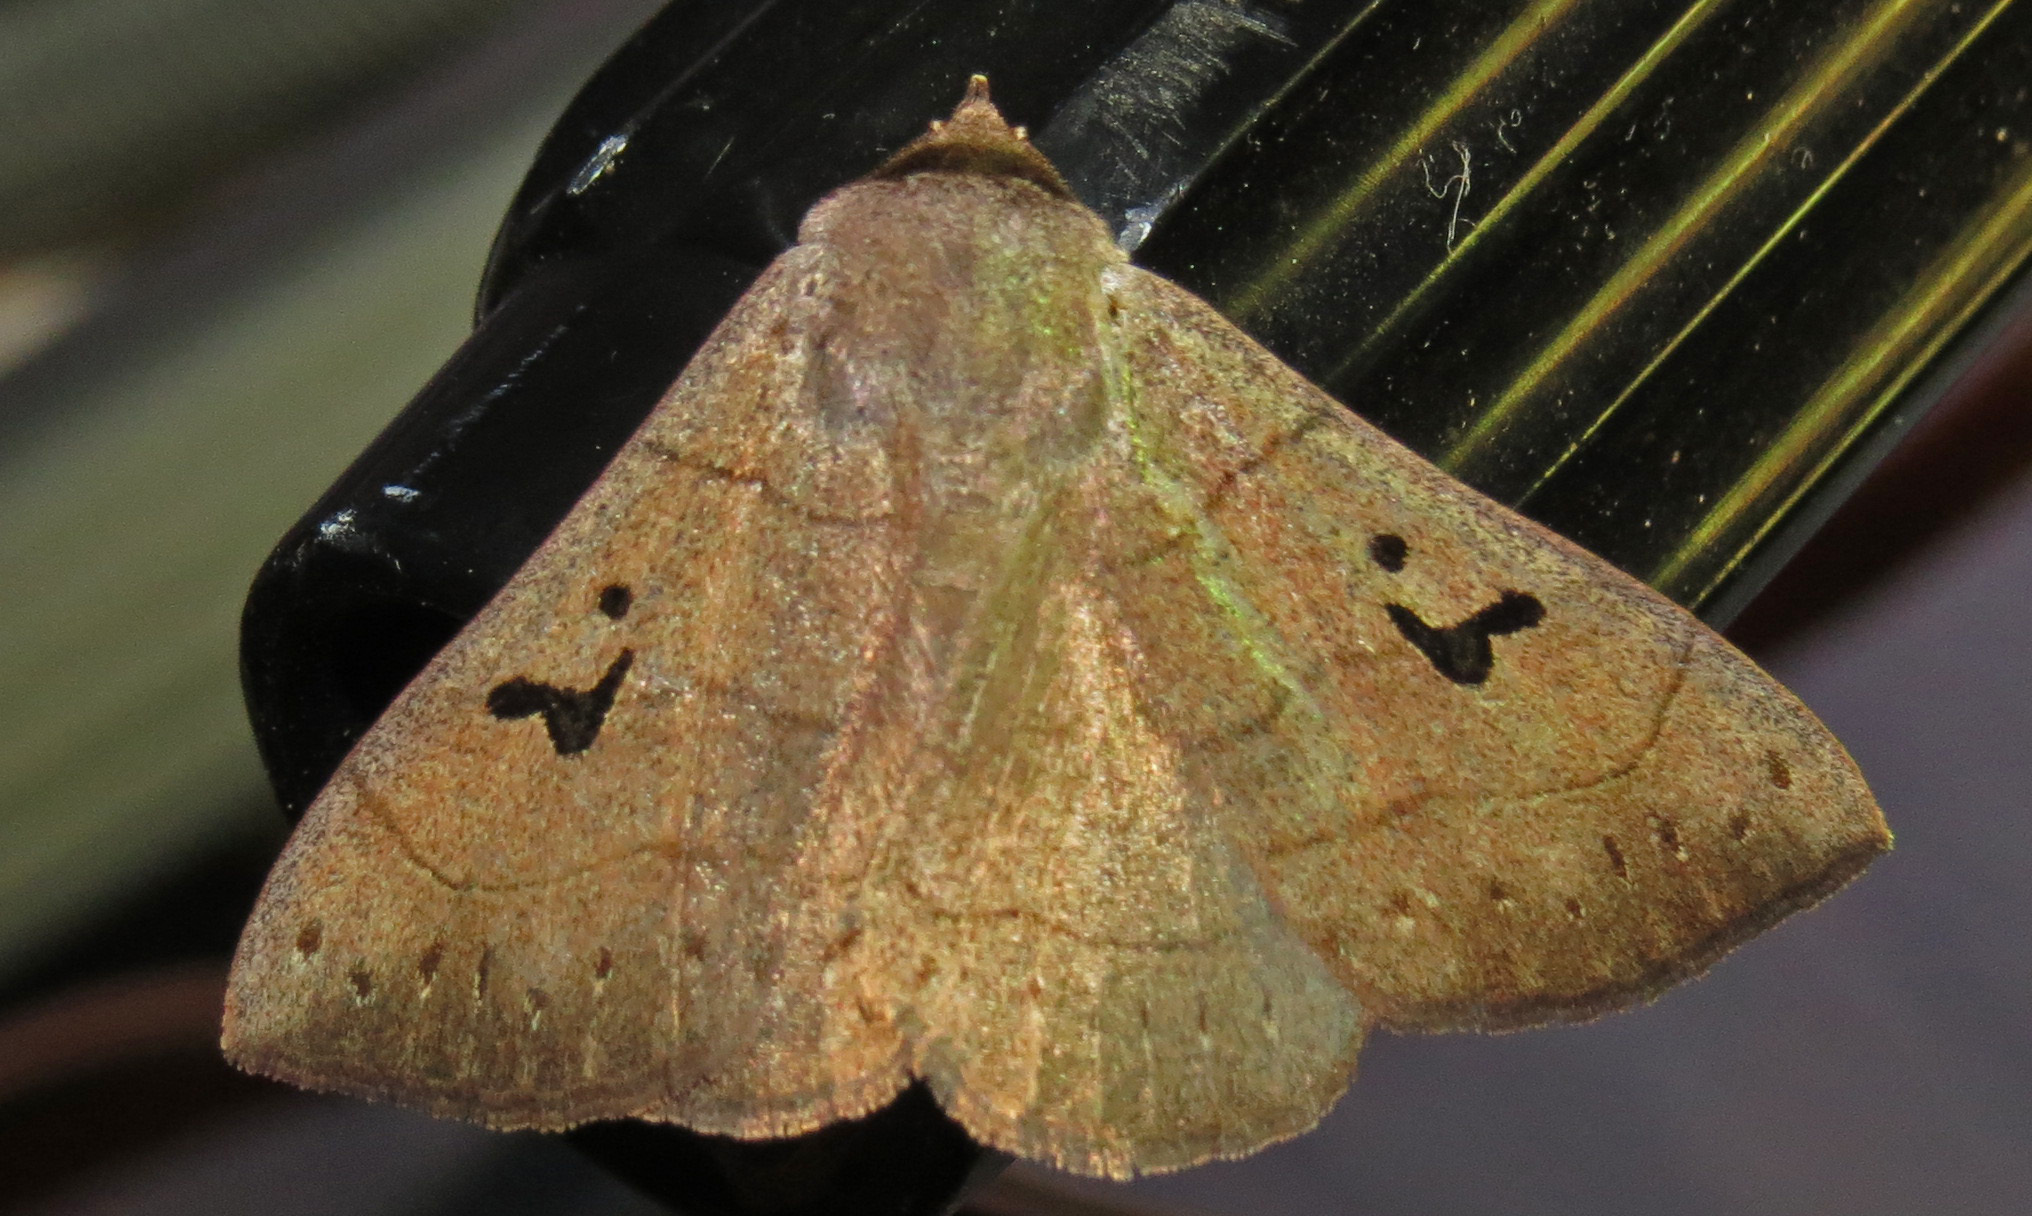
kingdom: Animalia
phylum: Arthropoda
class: Insecta
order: Lepidoptera
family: Erebidae
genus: Panopoda
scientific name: Panopoda carneicosta
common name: Brown panopoda moth
